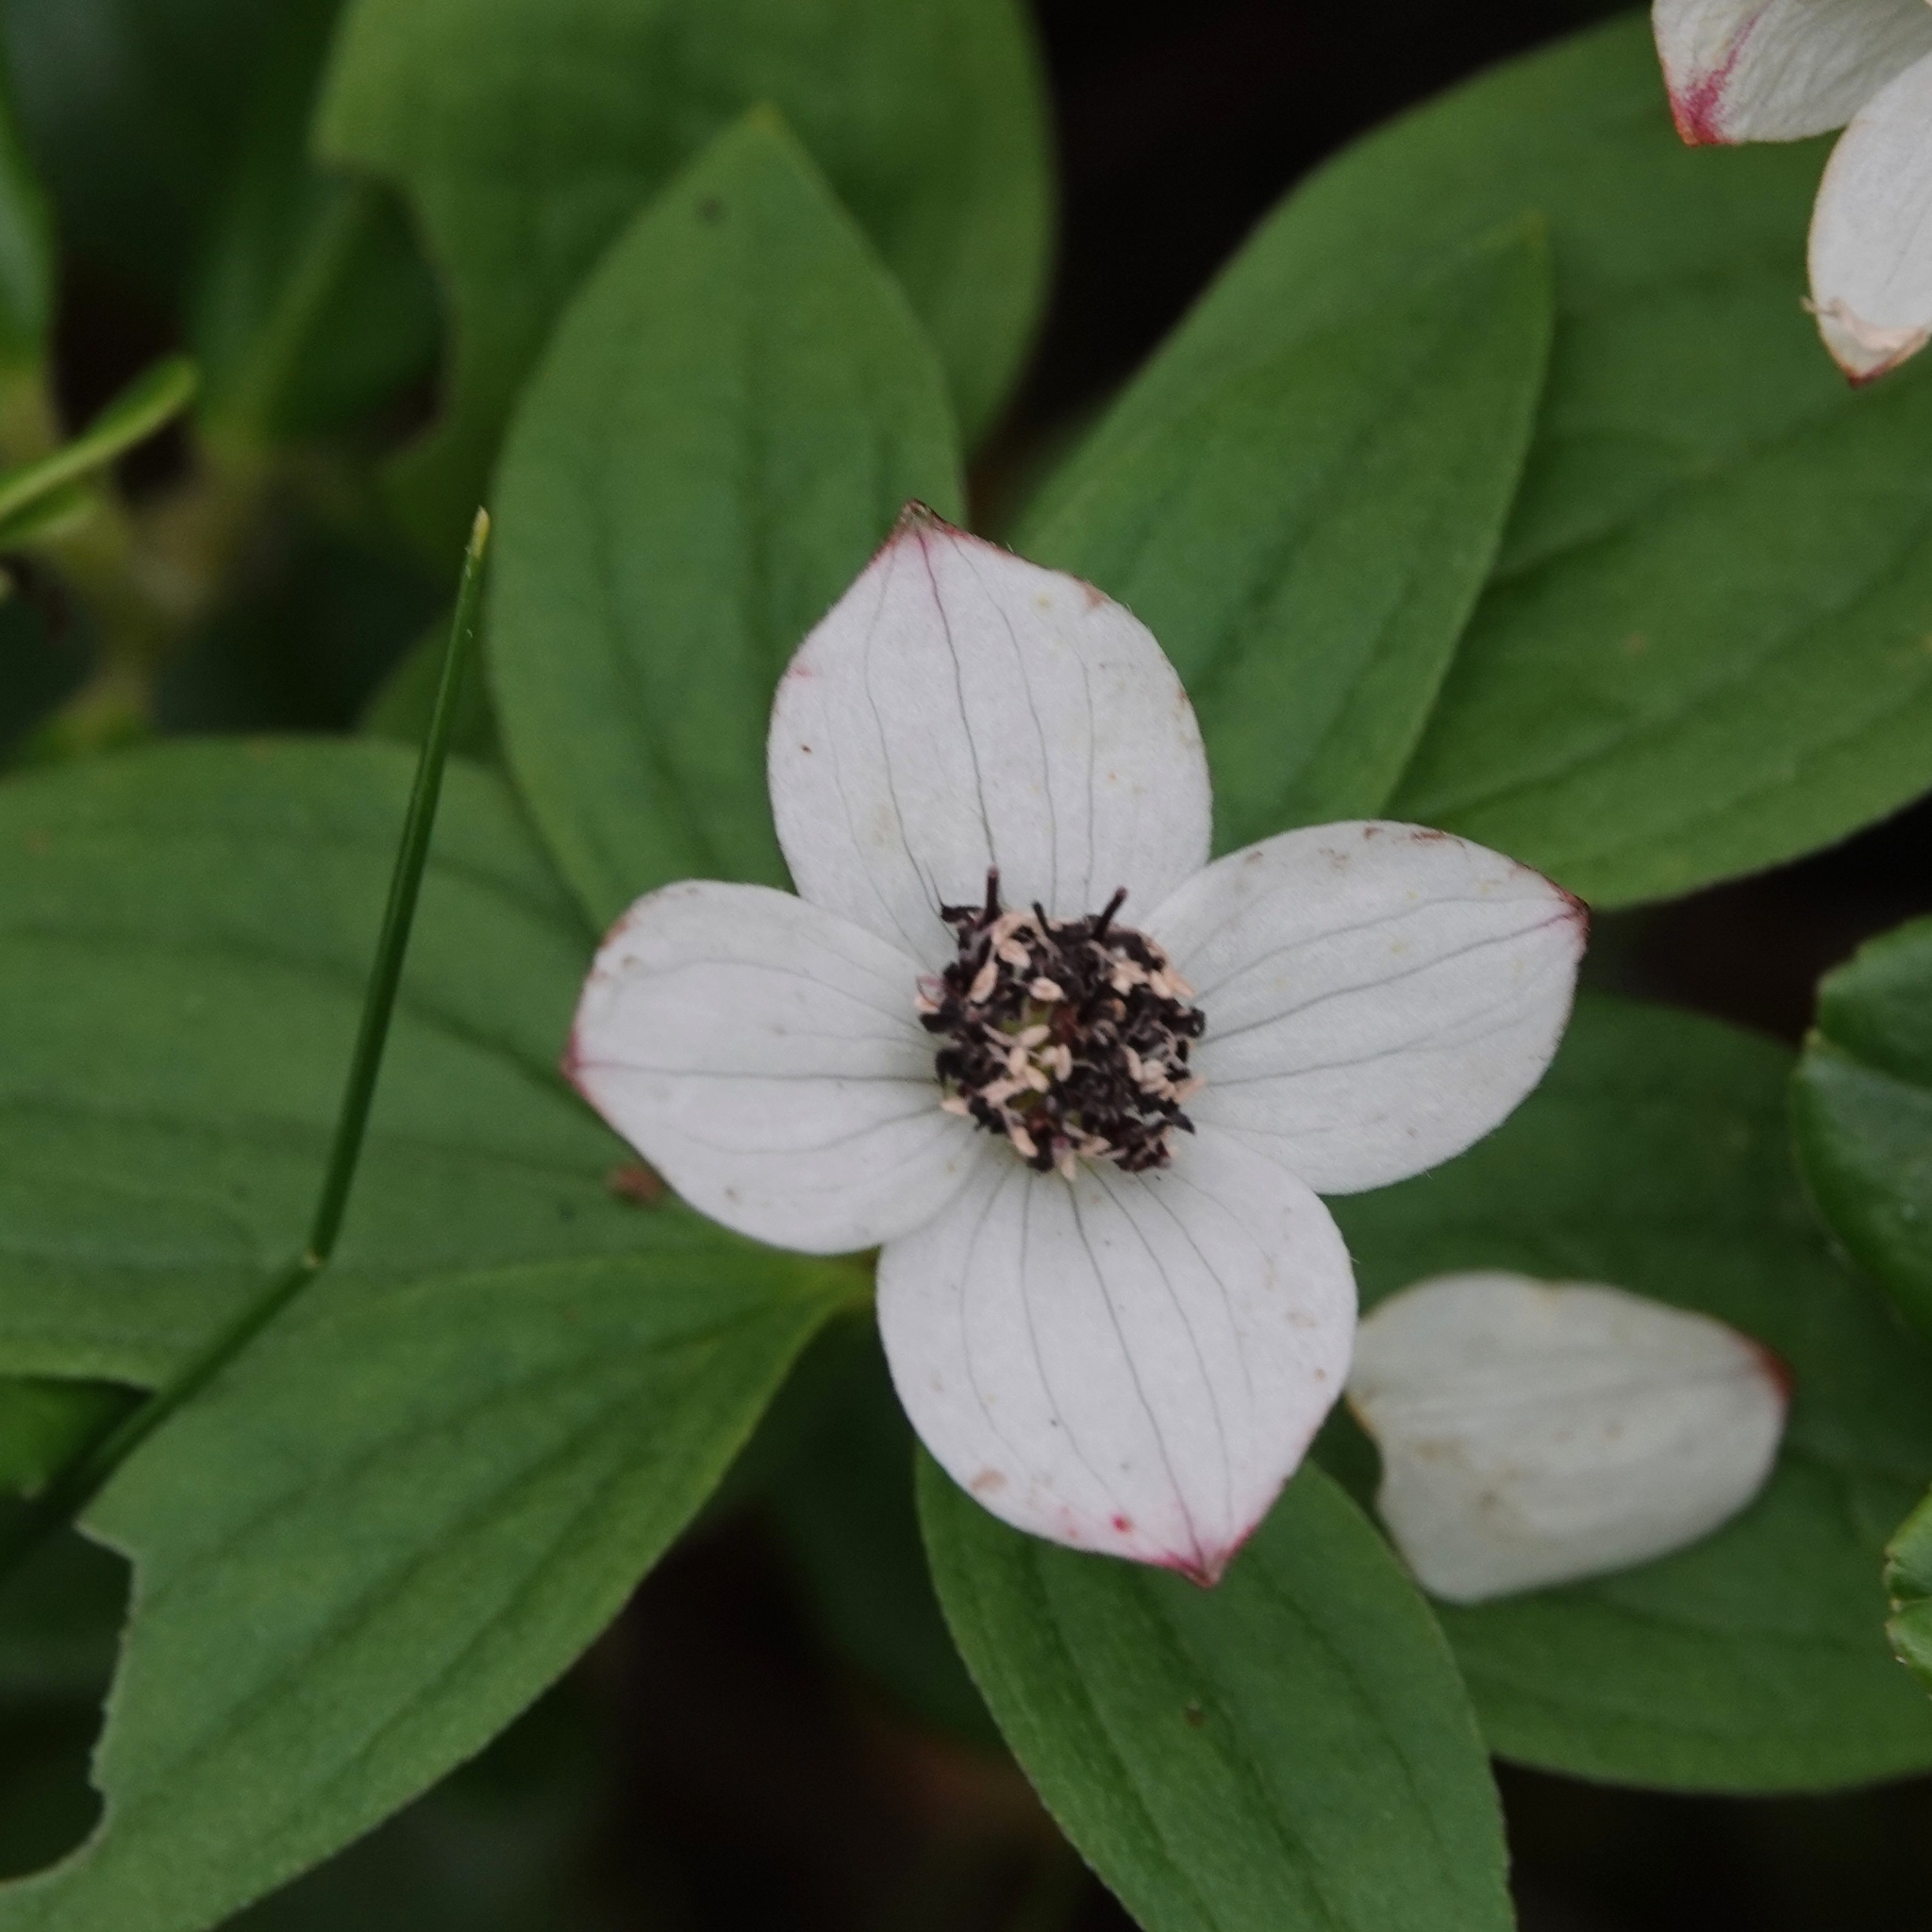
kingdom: Plantae
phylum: Tracheophyta
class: Magnoliopsida
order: Cornales
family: Cornaceae
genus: Cornus
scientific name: Cornus suecica
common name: Dwarf cornel
